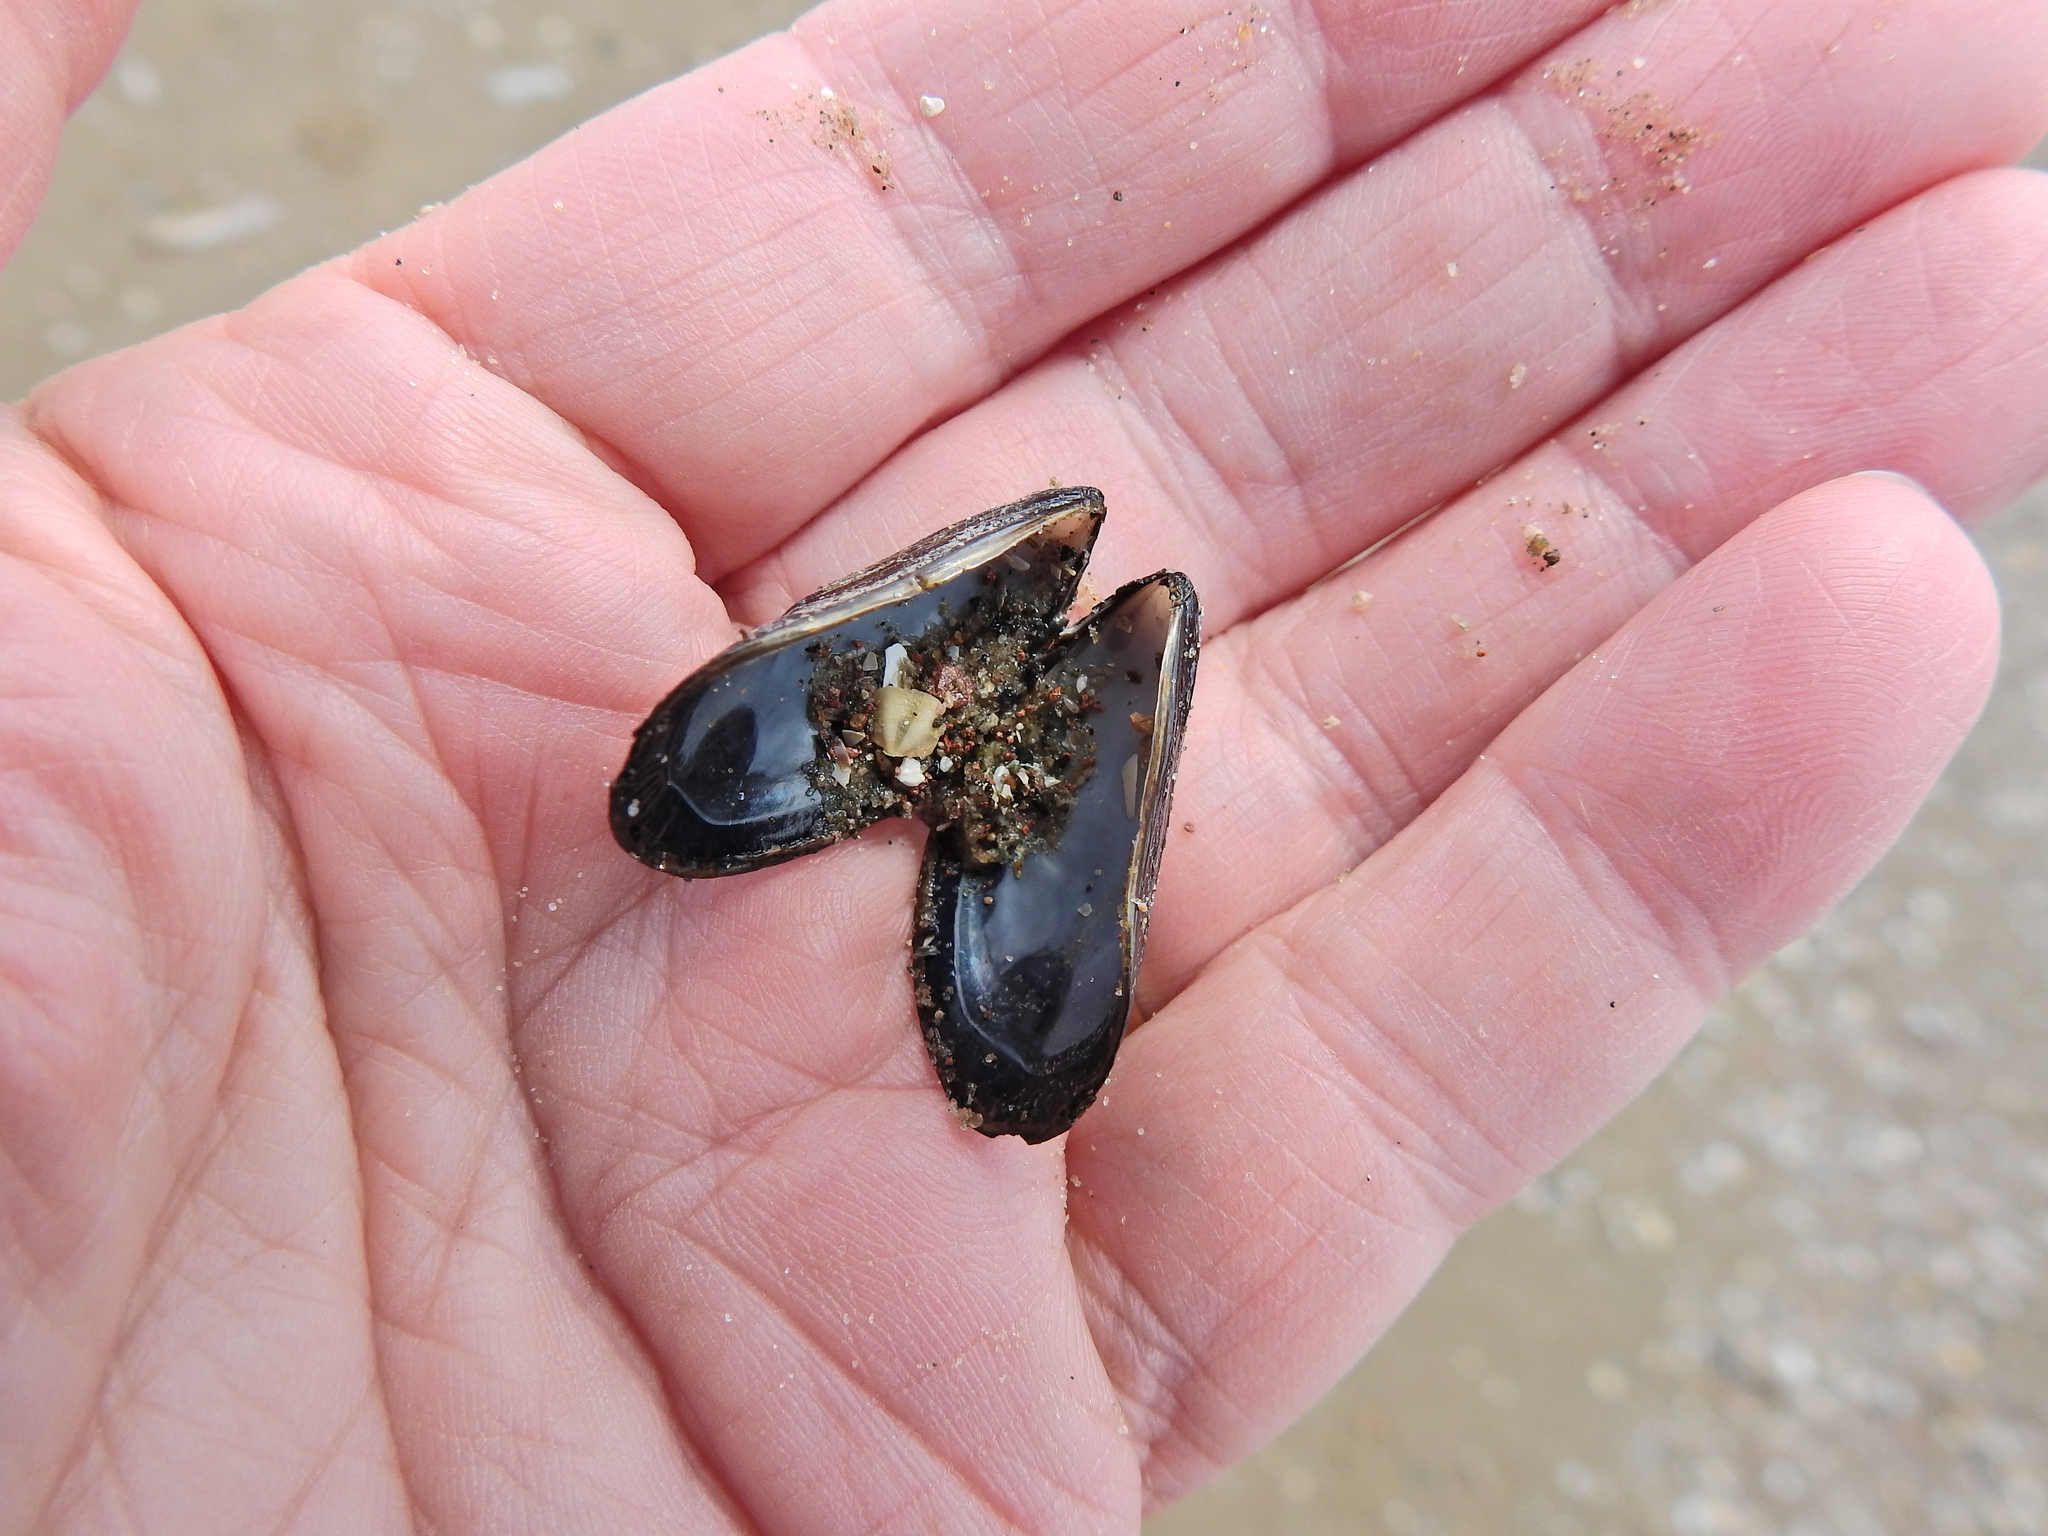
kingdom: Animalia
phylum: Mollusca
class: Bivalvia
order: Mytilida
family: Mytilidae
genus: Mytilus
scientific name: Mytilus edulis
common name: Blue mussel
